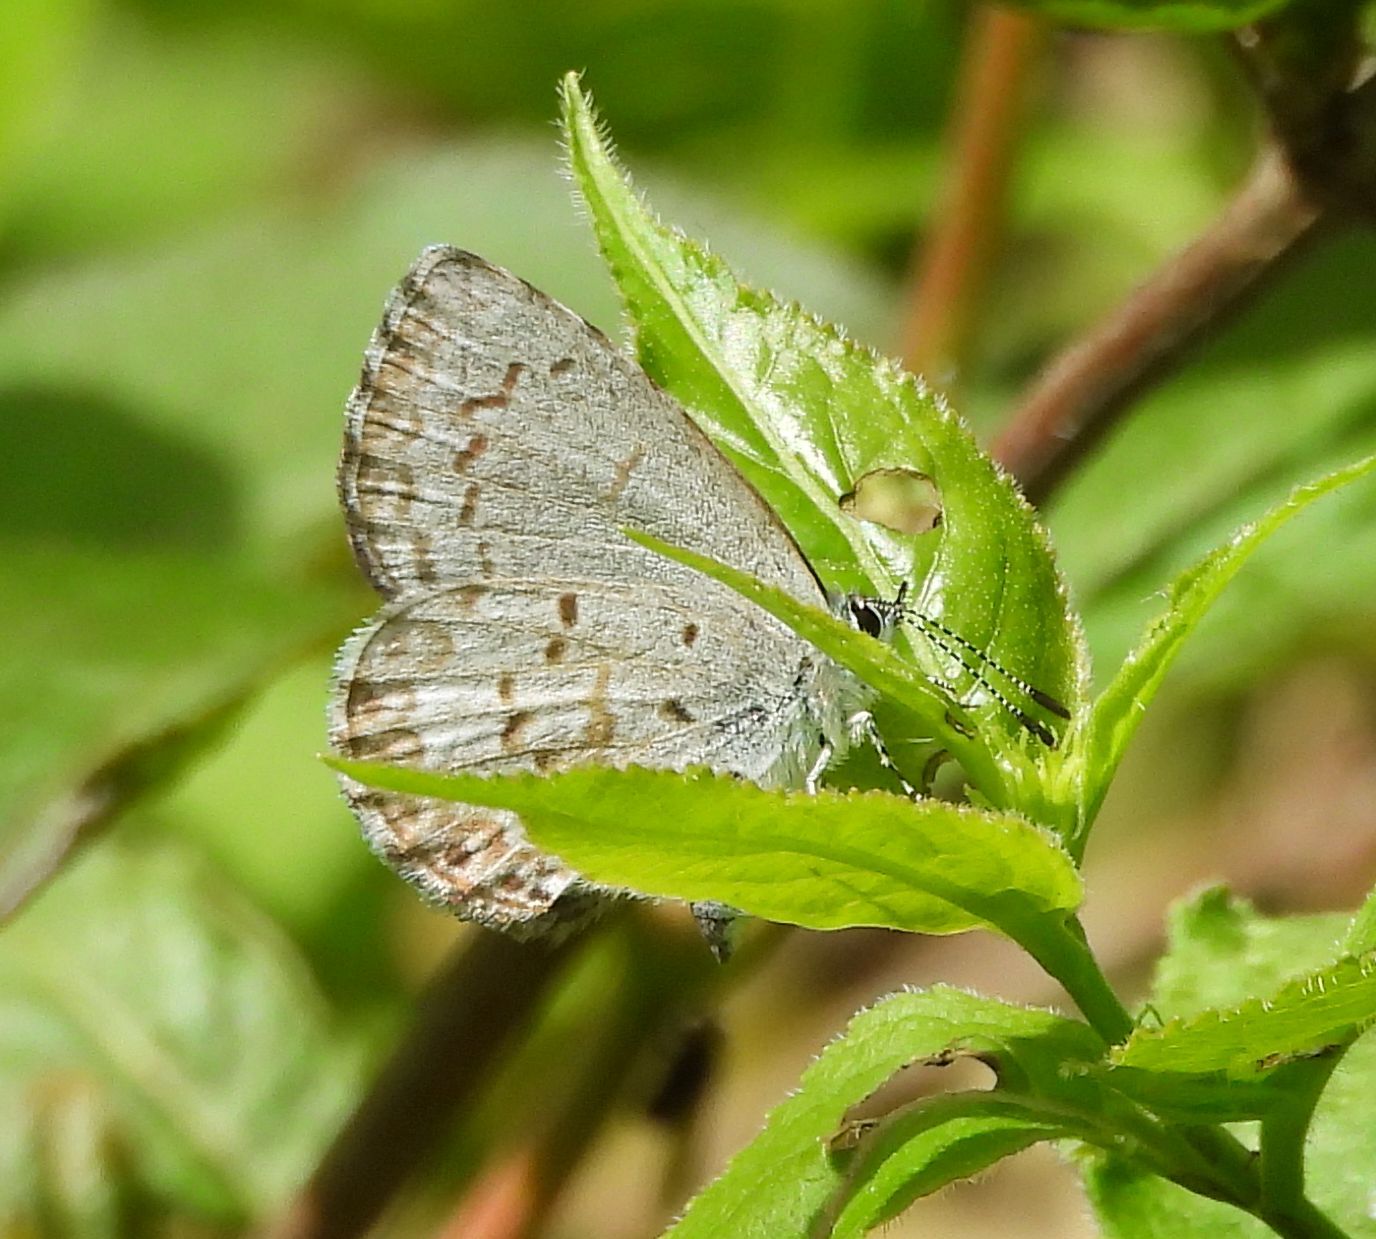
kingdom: Animalia
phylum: Arthropoda
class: Insecta
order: Lepidoptera
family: Lycaenidae
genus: Celastrina
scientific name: Celastrina lucia
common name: Lucia azure
